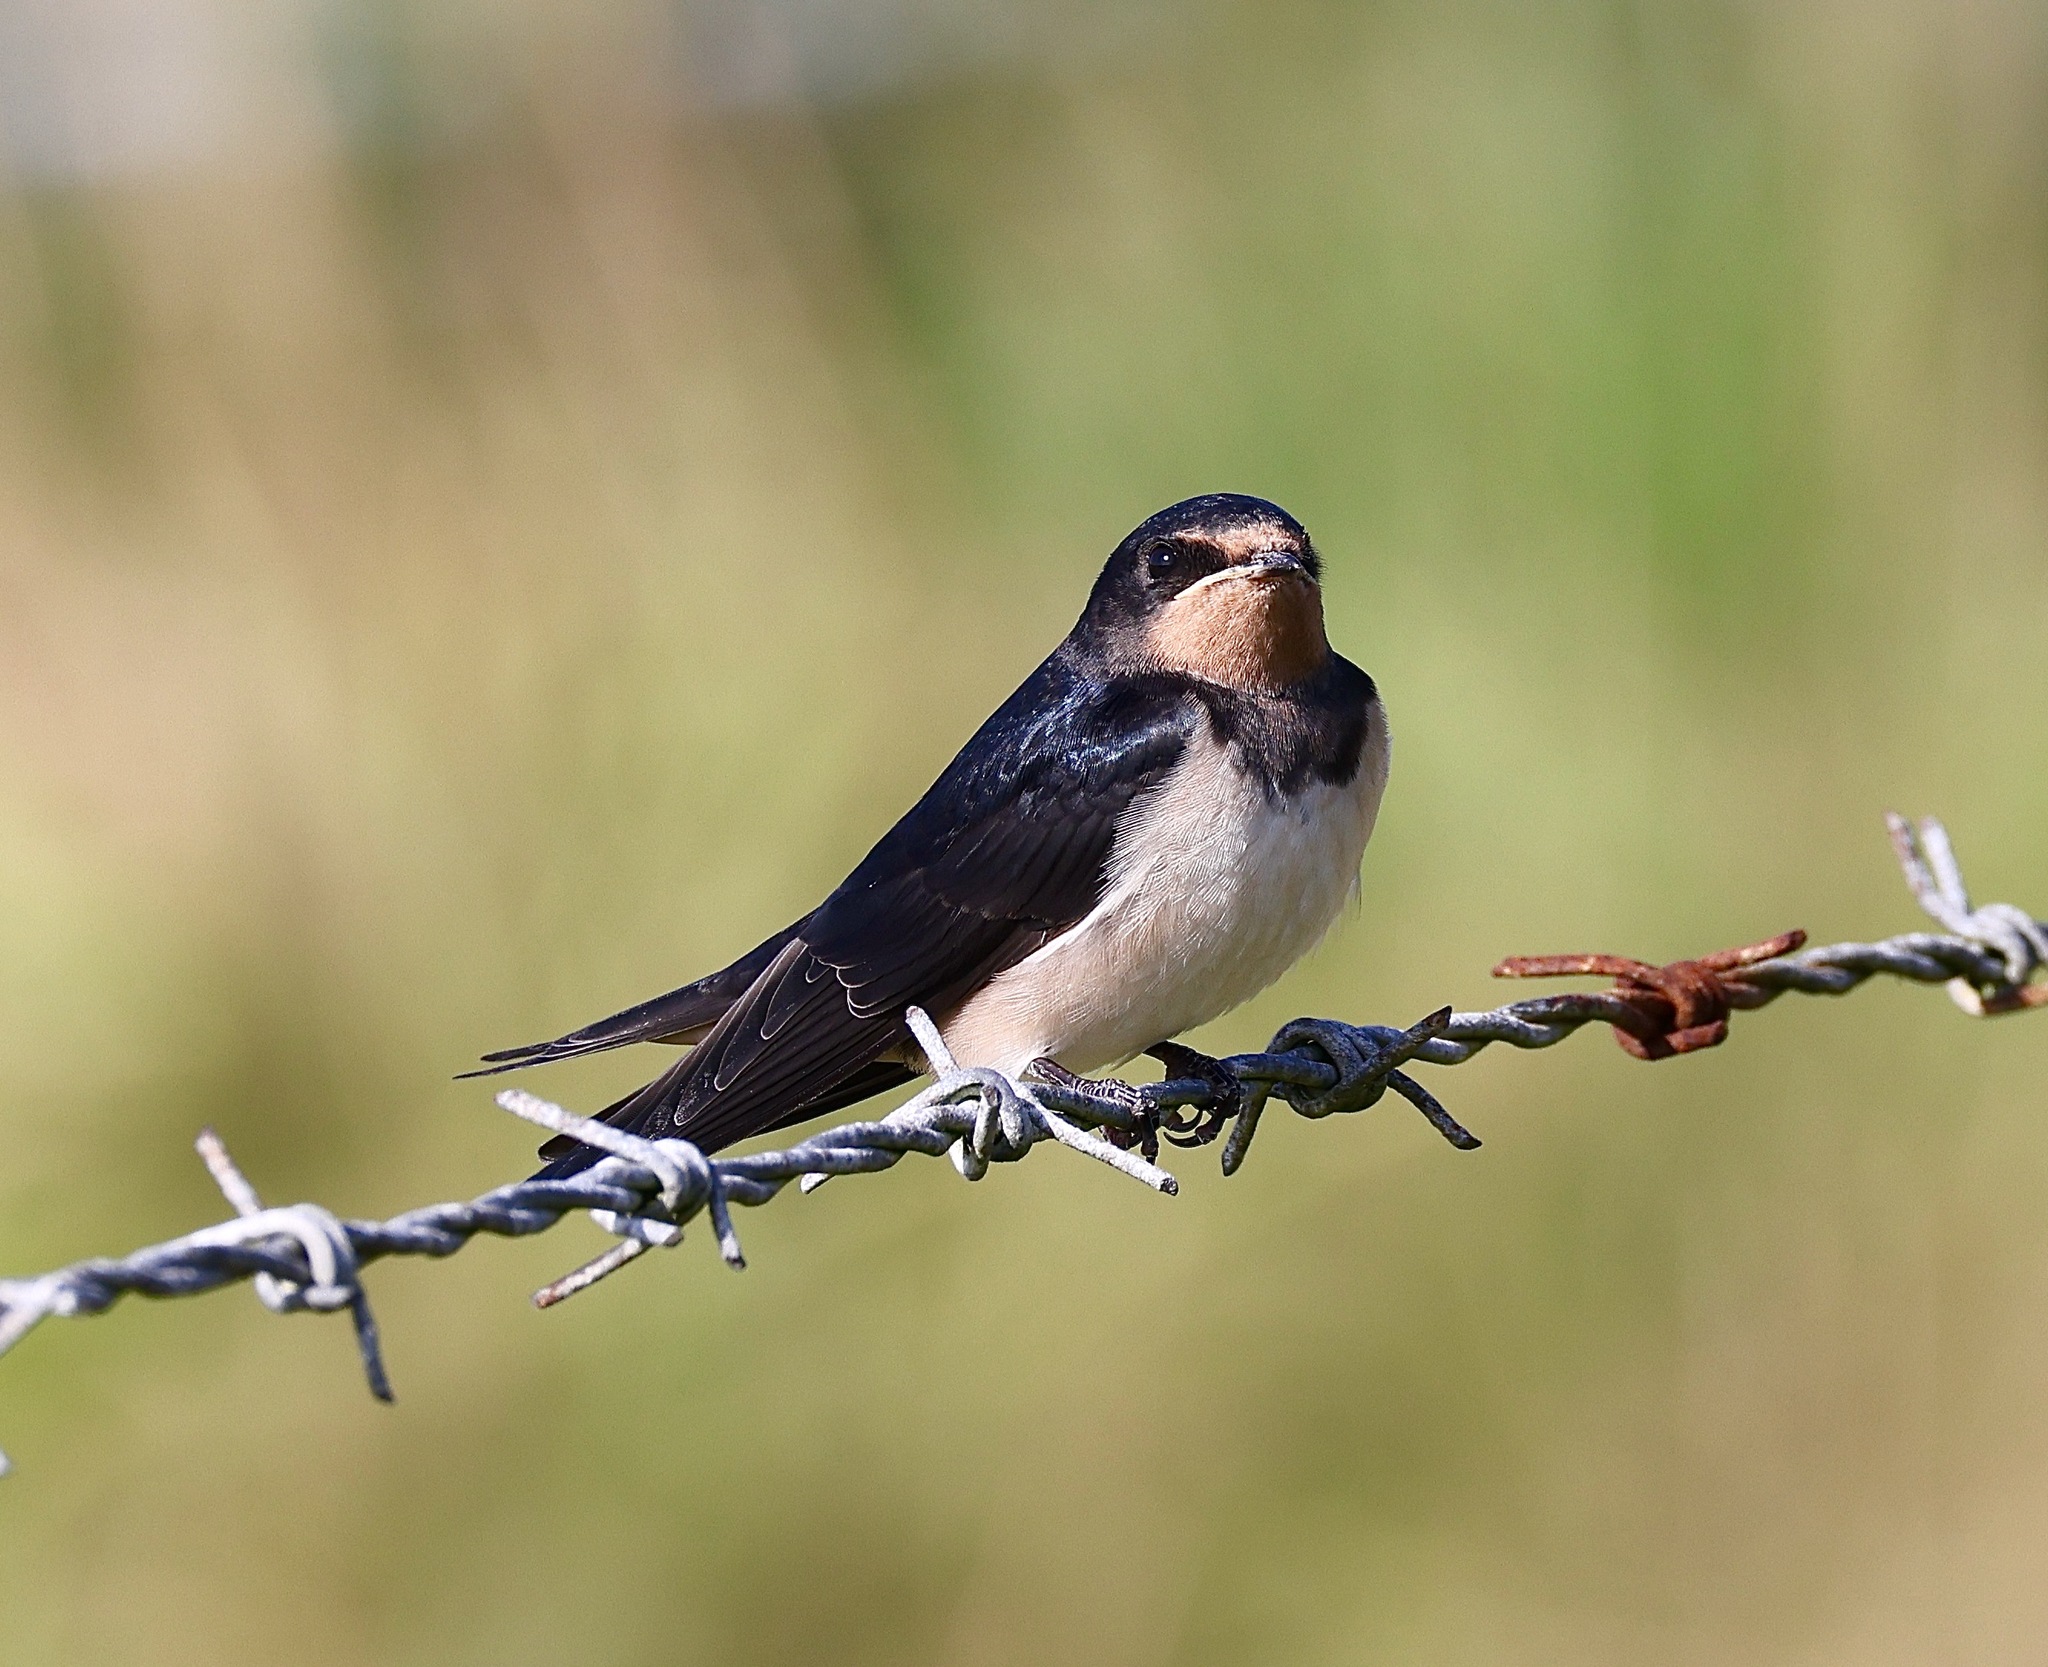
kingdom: Animalia
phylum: Chordata
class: Aves
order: Passeriformes
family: Hirundinidae
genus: Hirundo
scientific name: Hirundo rustica
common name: Barn swallow
